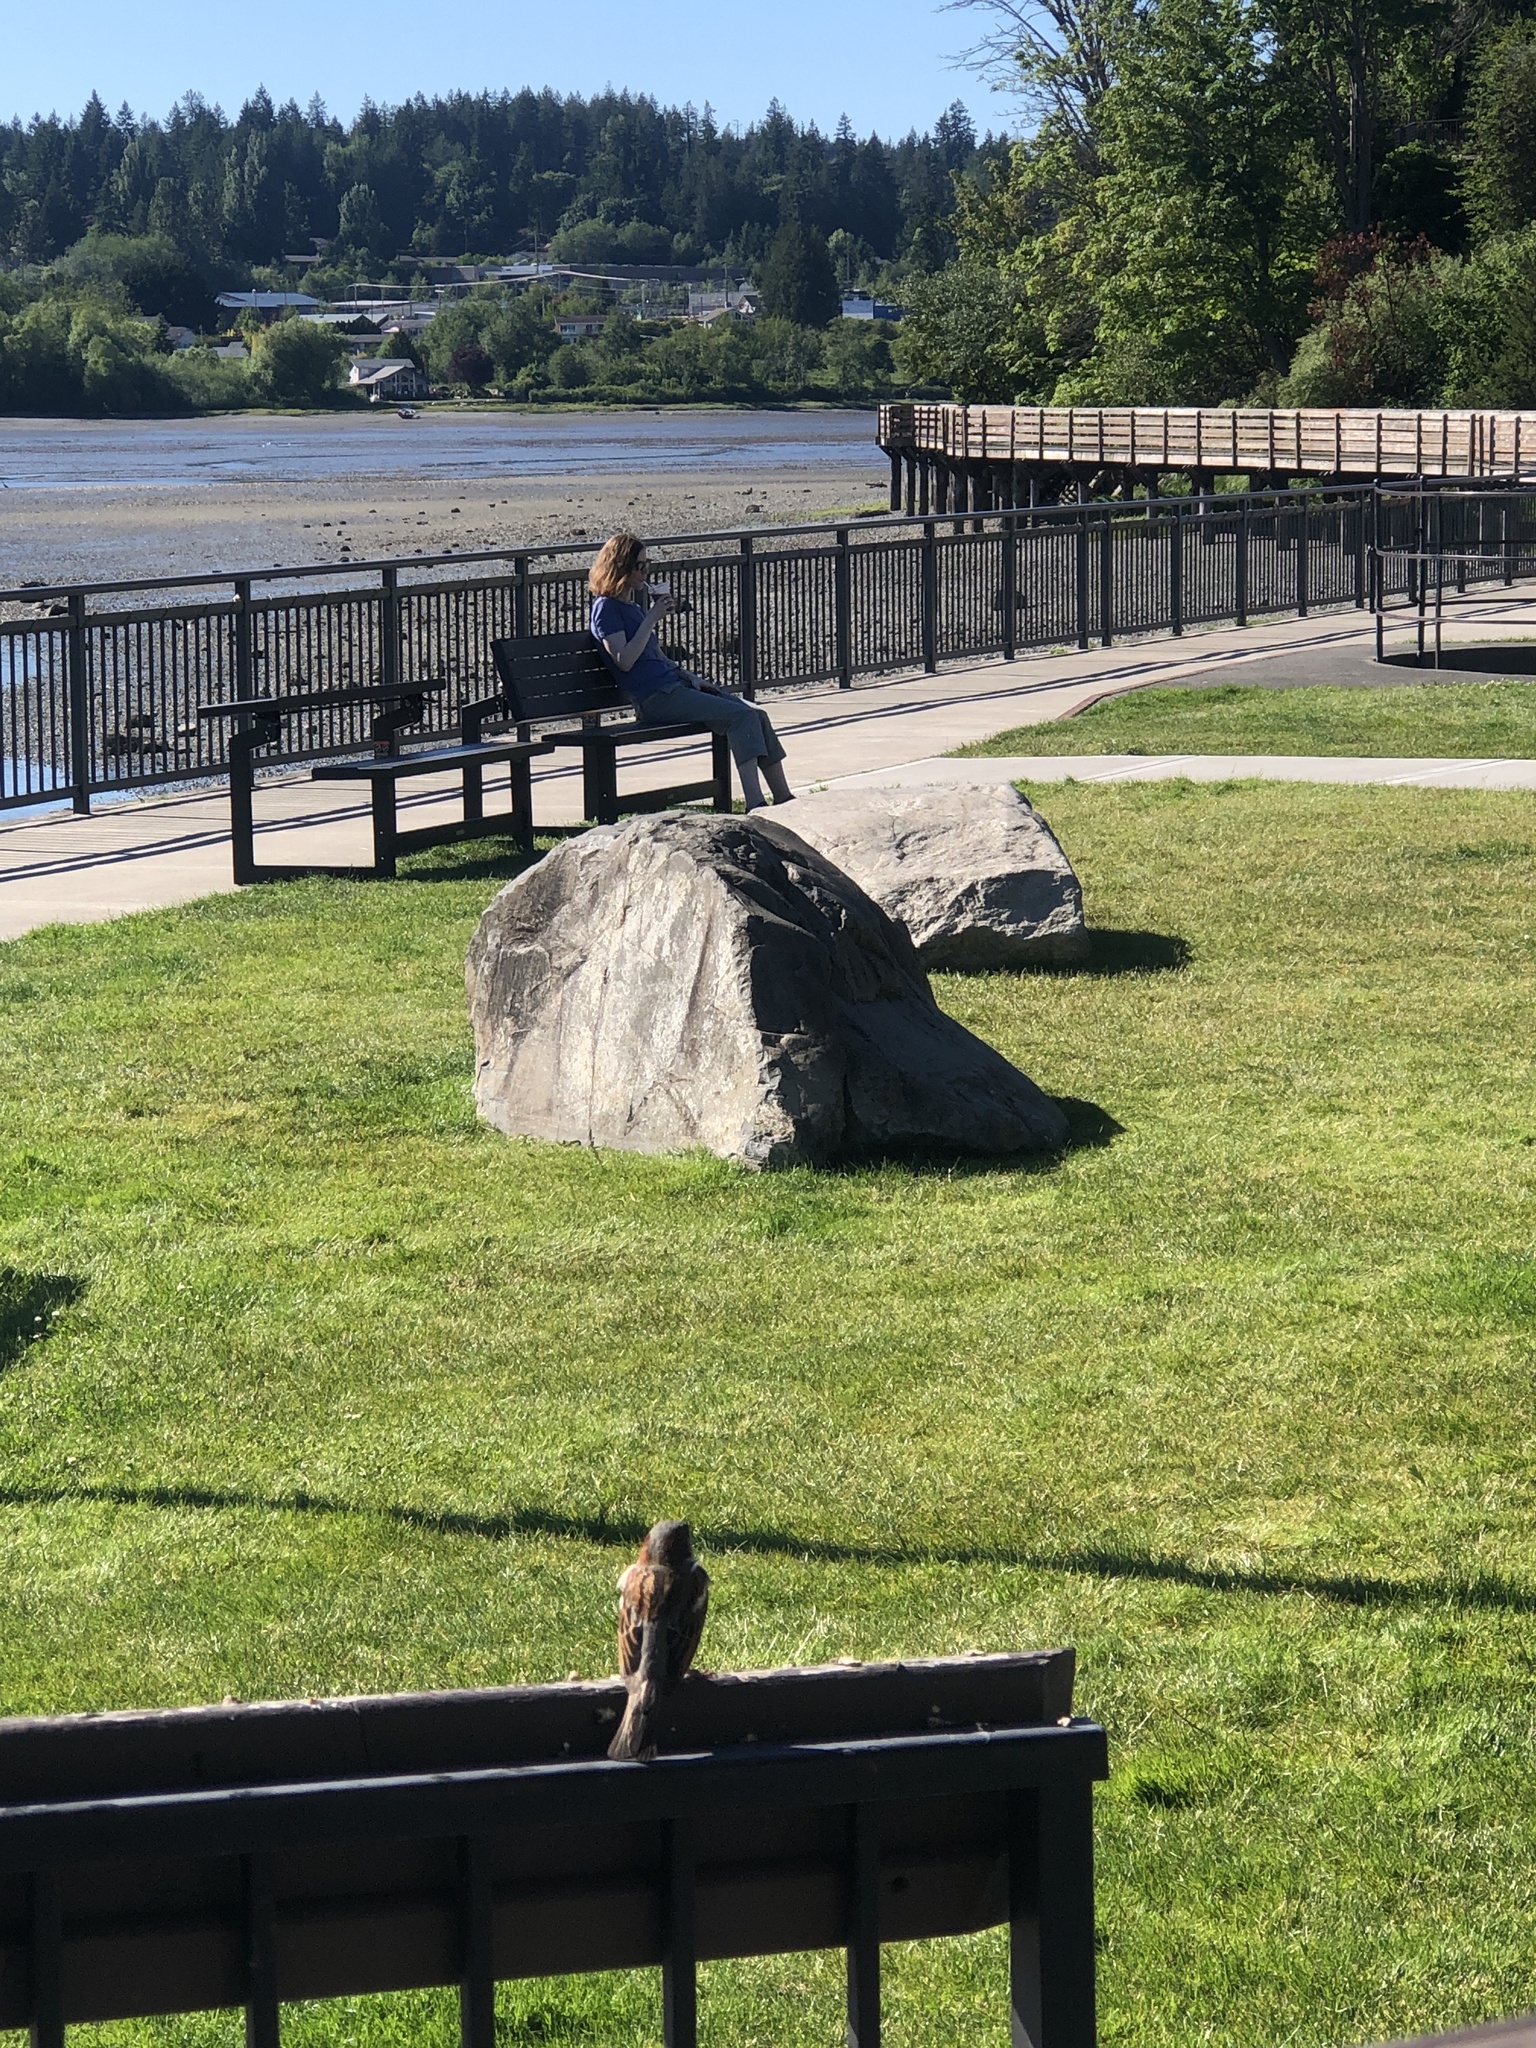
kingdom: Animalia
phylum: Chordata
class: Aves
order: Passeriformes
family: Passeridae
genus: Passer
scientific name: Passer domesticus
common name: House sparrow
